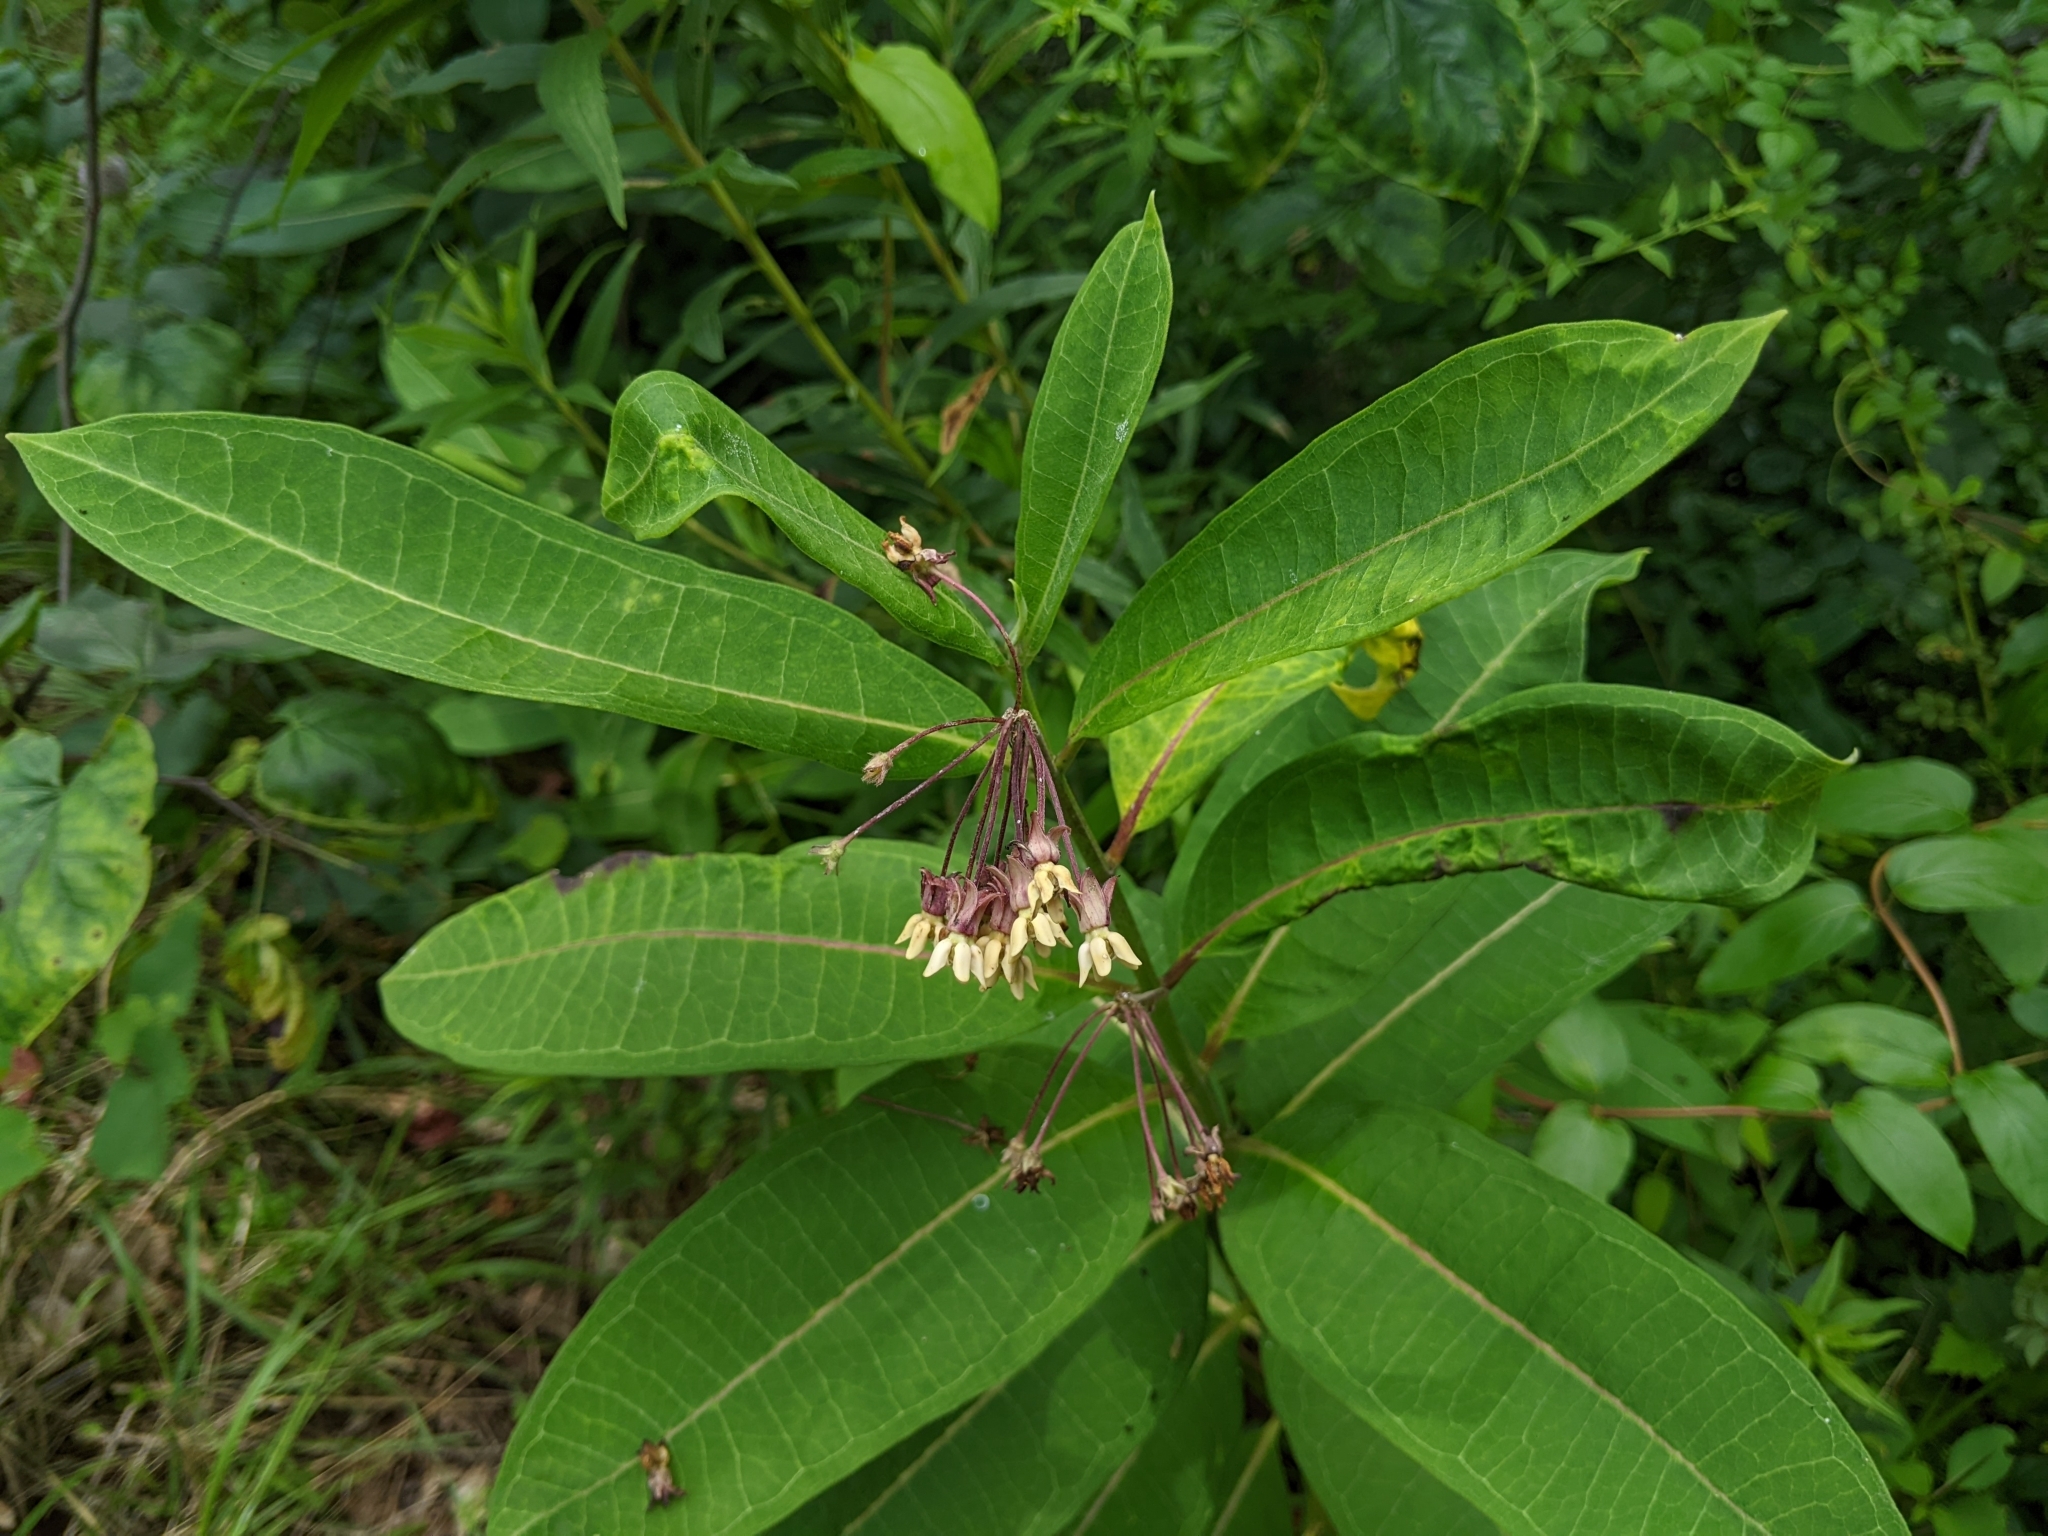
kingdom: Plantae
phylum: Tracheophyta
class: Magnoliopsida
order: Gentianales
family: Apocynaceae
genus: Asclepias
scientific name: Asclepias syriaca
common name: Common milkweed
